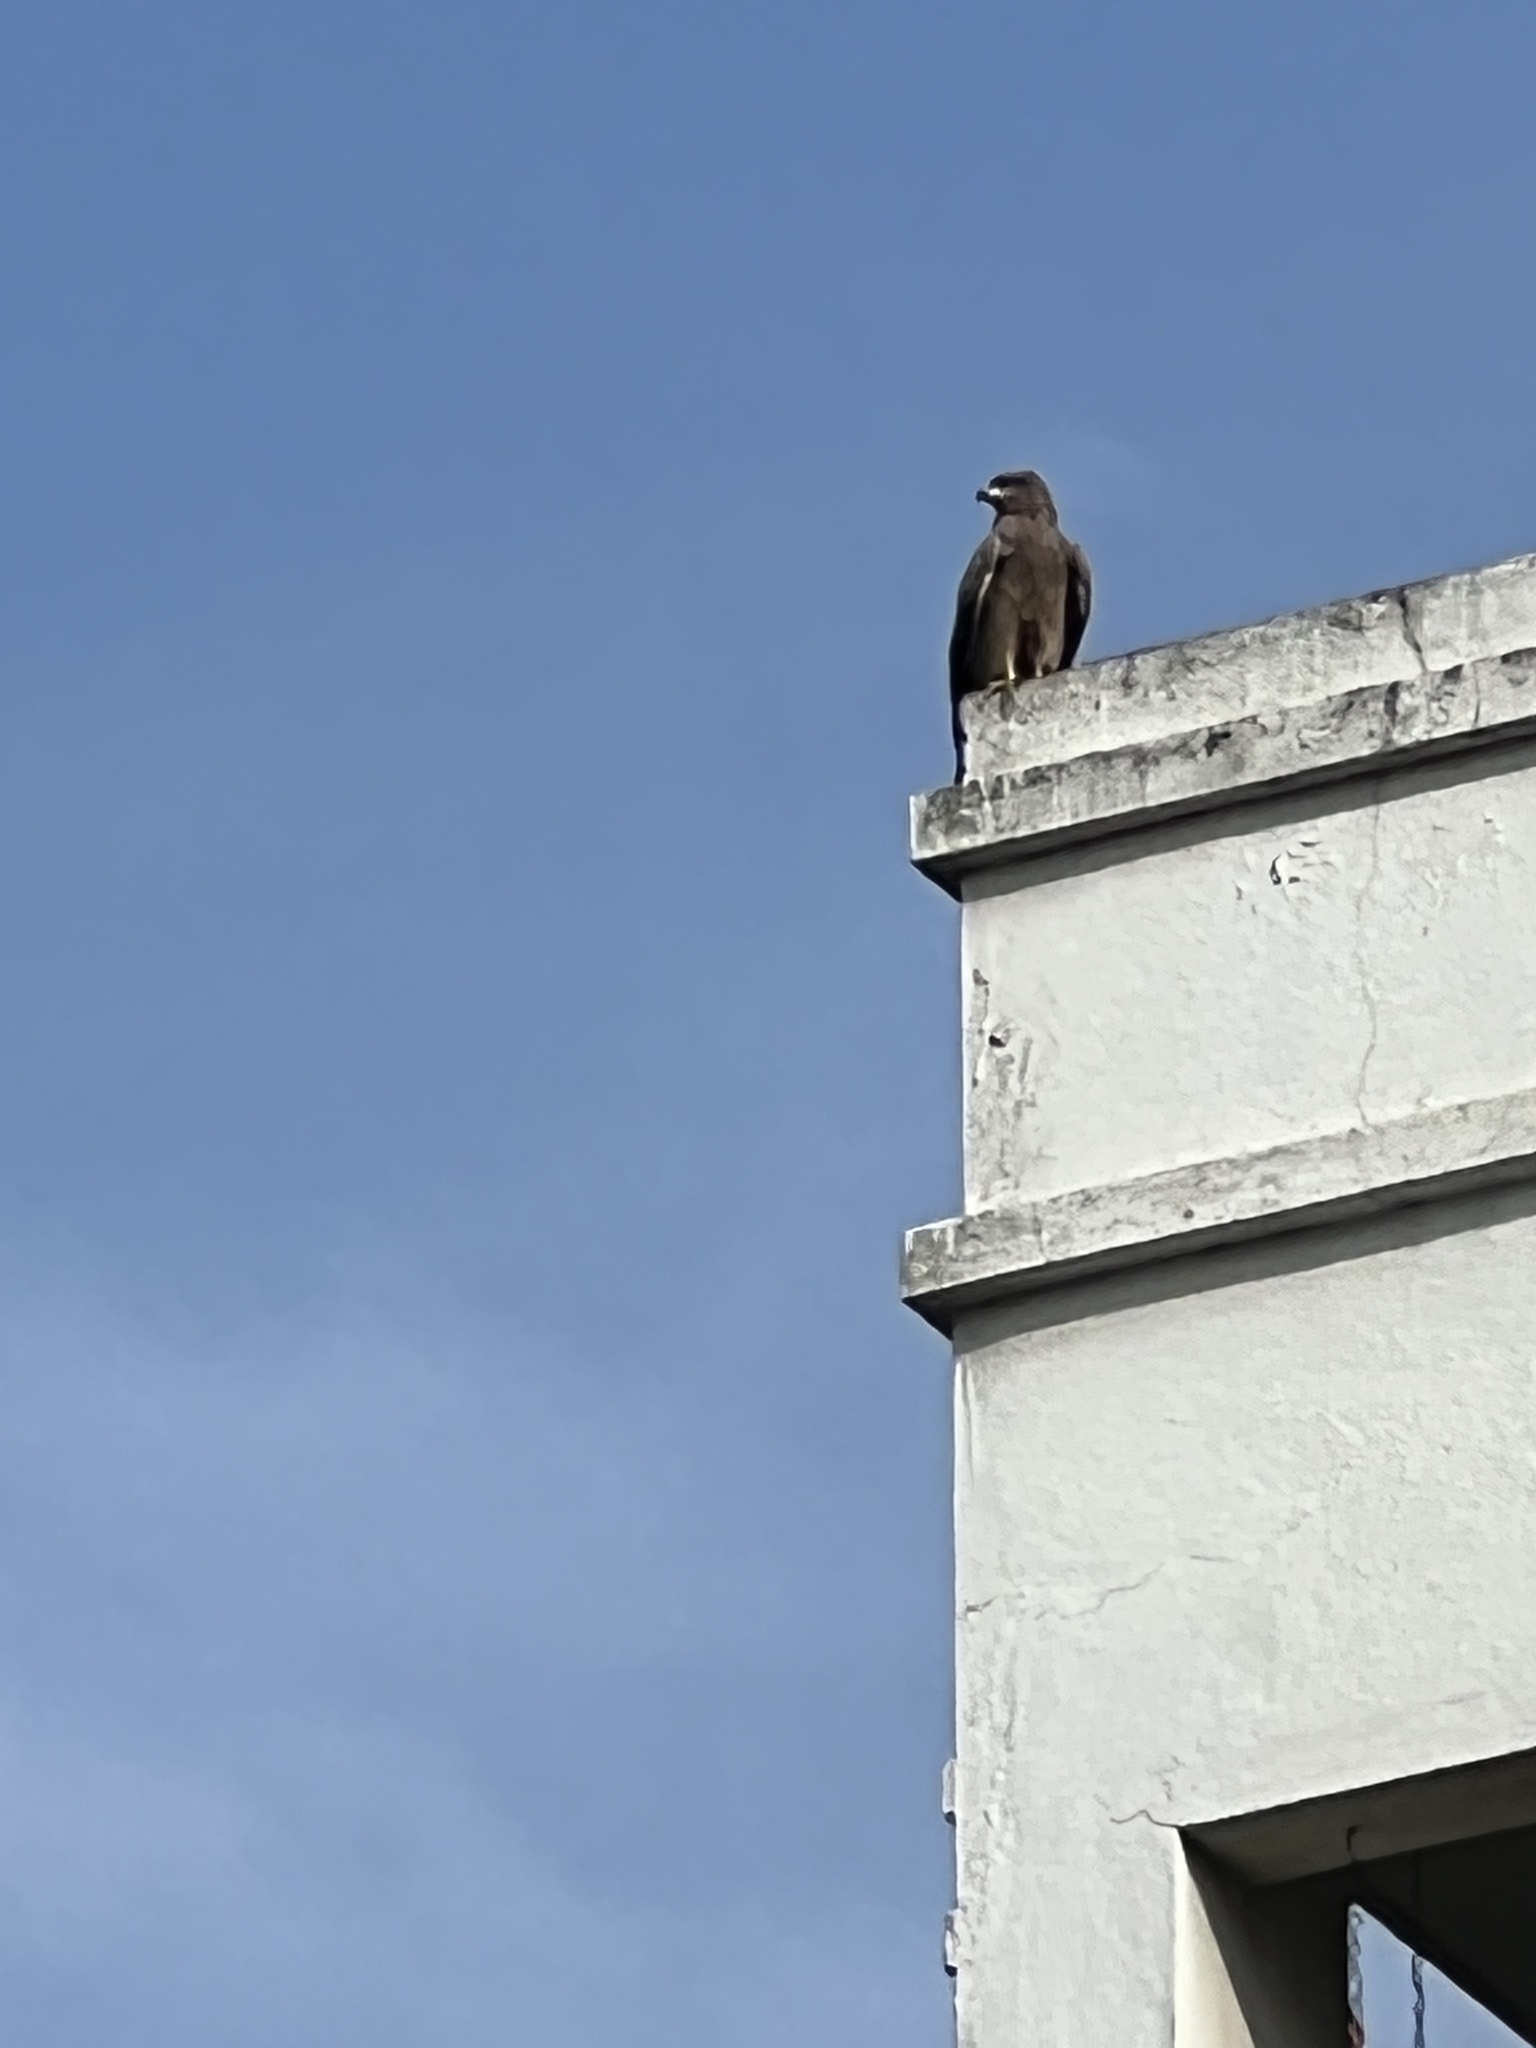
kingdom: Animalia
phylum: Chordata
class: Aves
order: Accipitriformes
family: Accipitridae
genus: Milvus
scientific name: Milvus migrans
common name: Black kite
